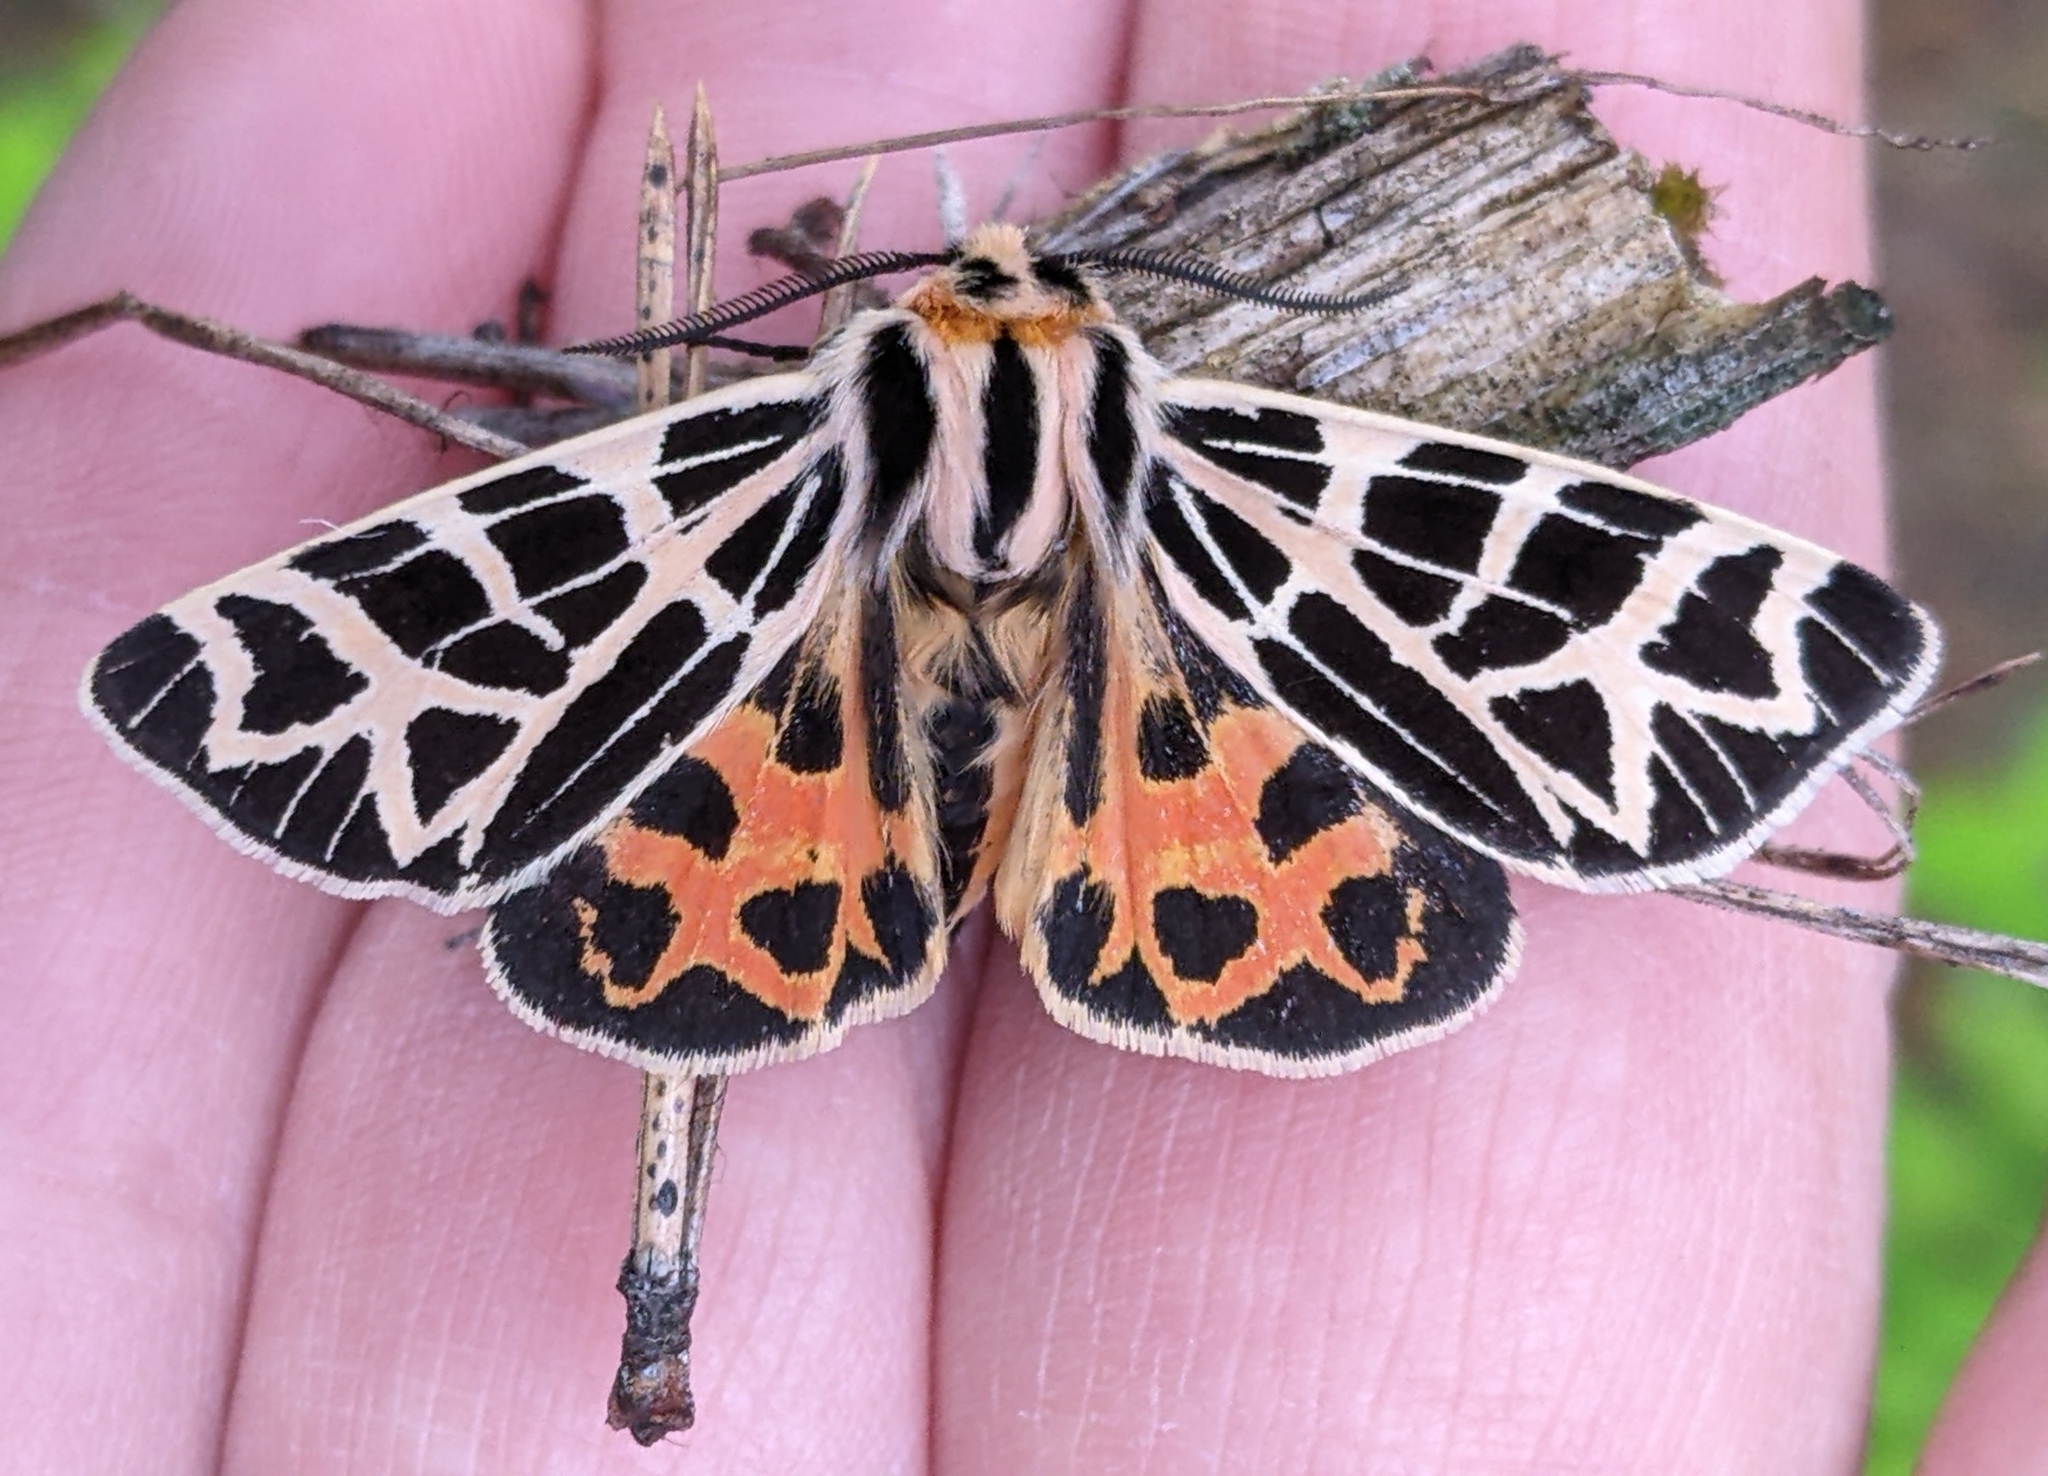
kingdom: Animalia
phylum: Arthropoda
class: Insecta
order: Lepidoptera
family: Erebidae
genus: Apantesis
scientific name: Apantesis
